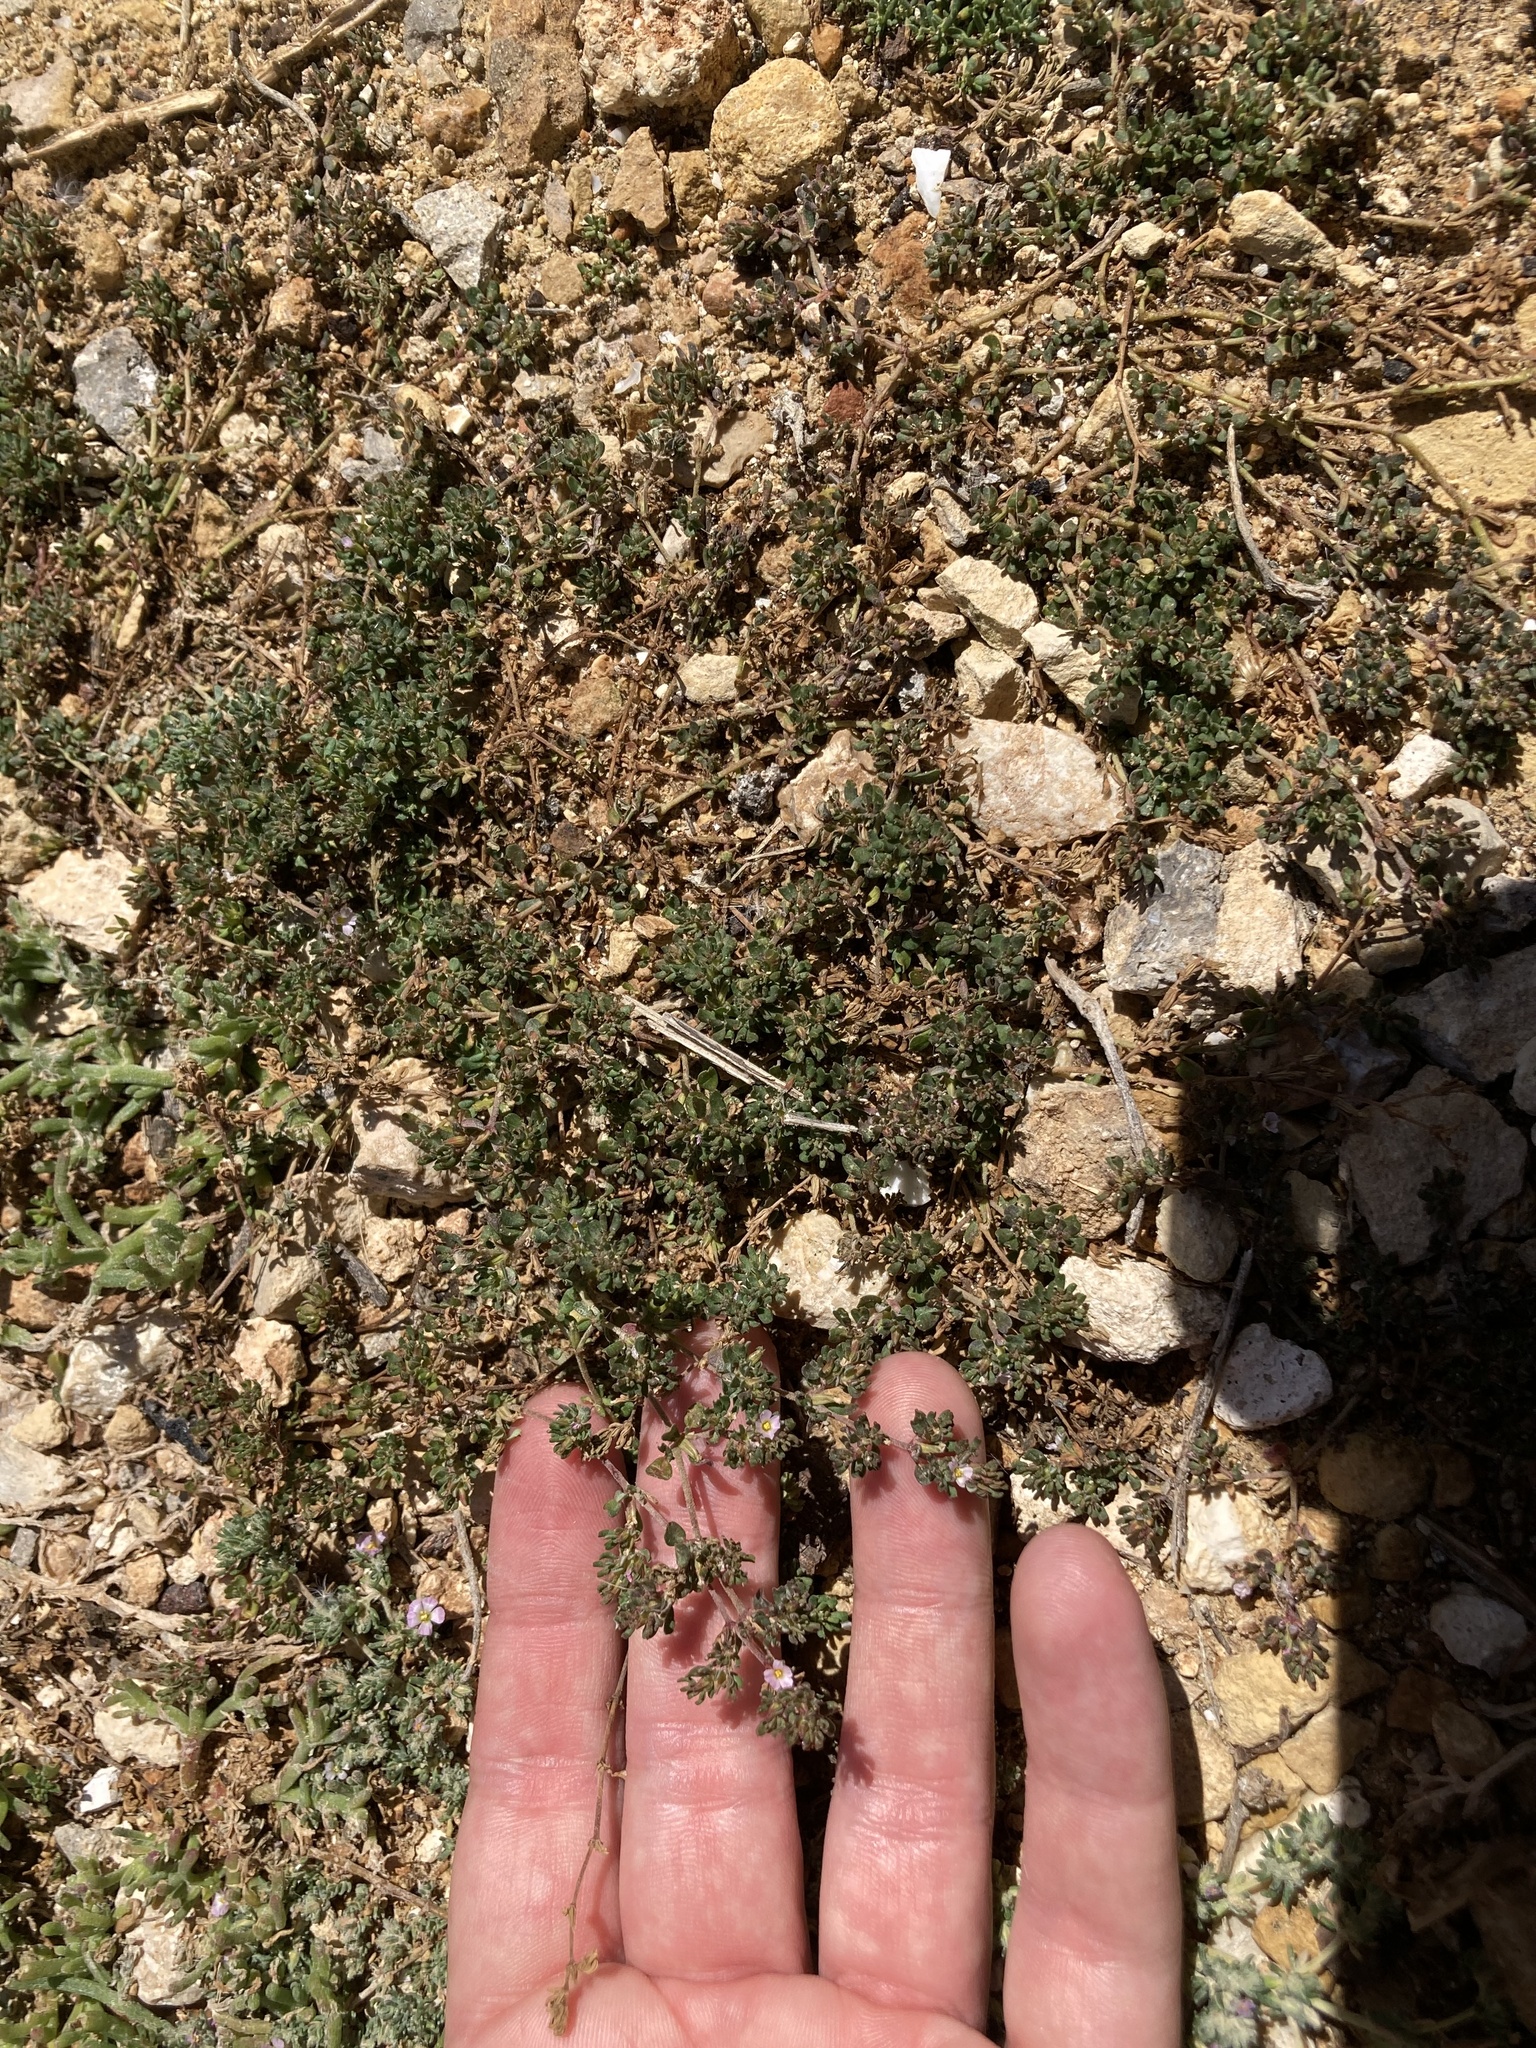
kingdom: Plantae
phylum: Tracheophyta
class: Magnoliopsida
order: Caryophyllales
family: Frankeniaceae
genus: Frankenia
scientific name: Frankenia pulverulenta
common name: European seaheath
